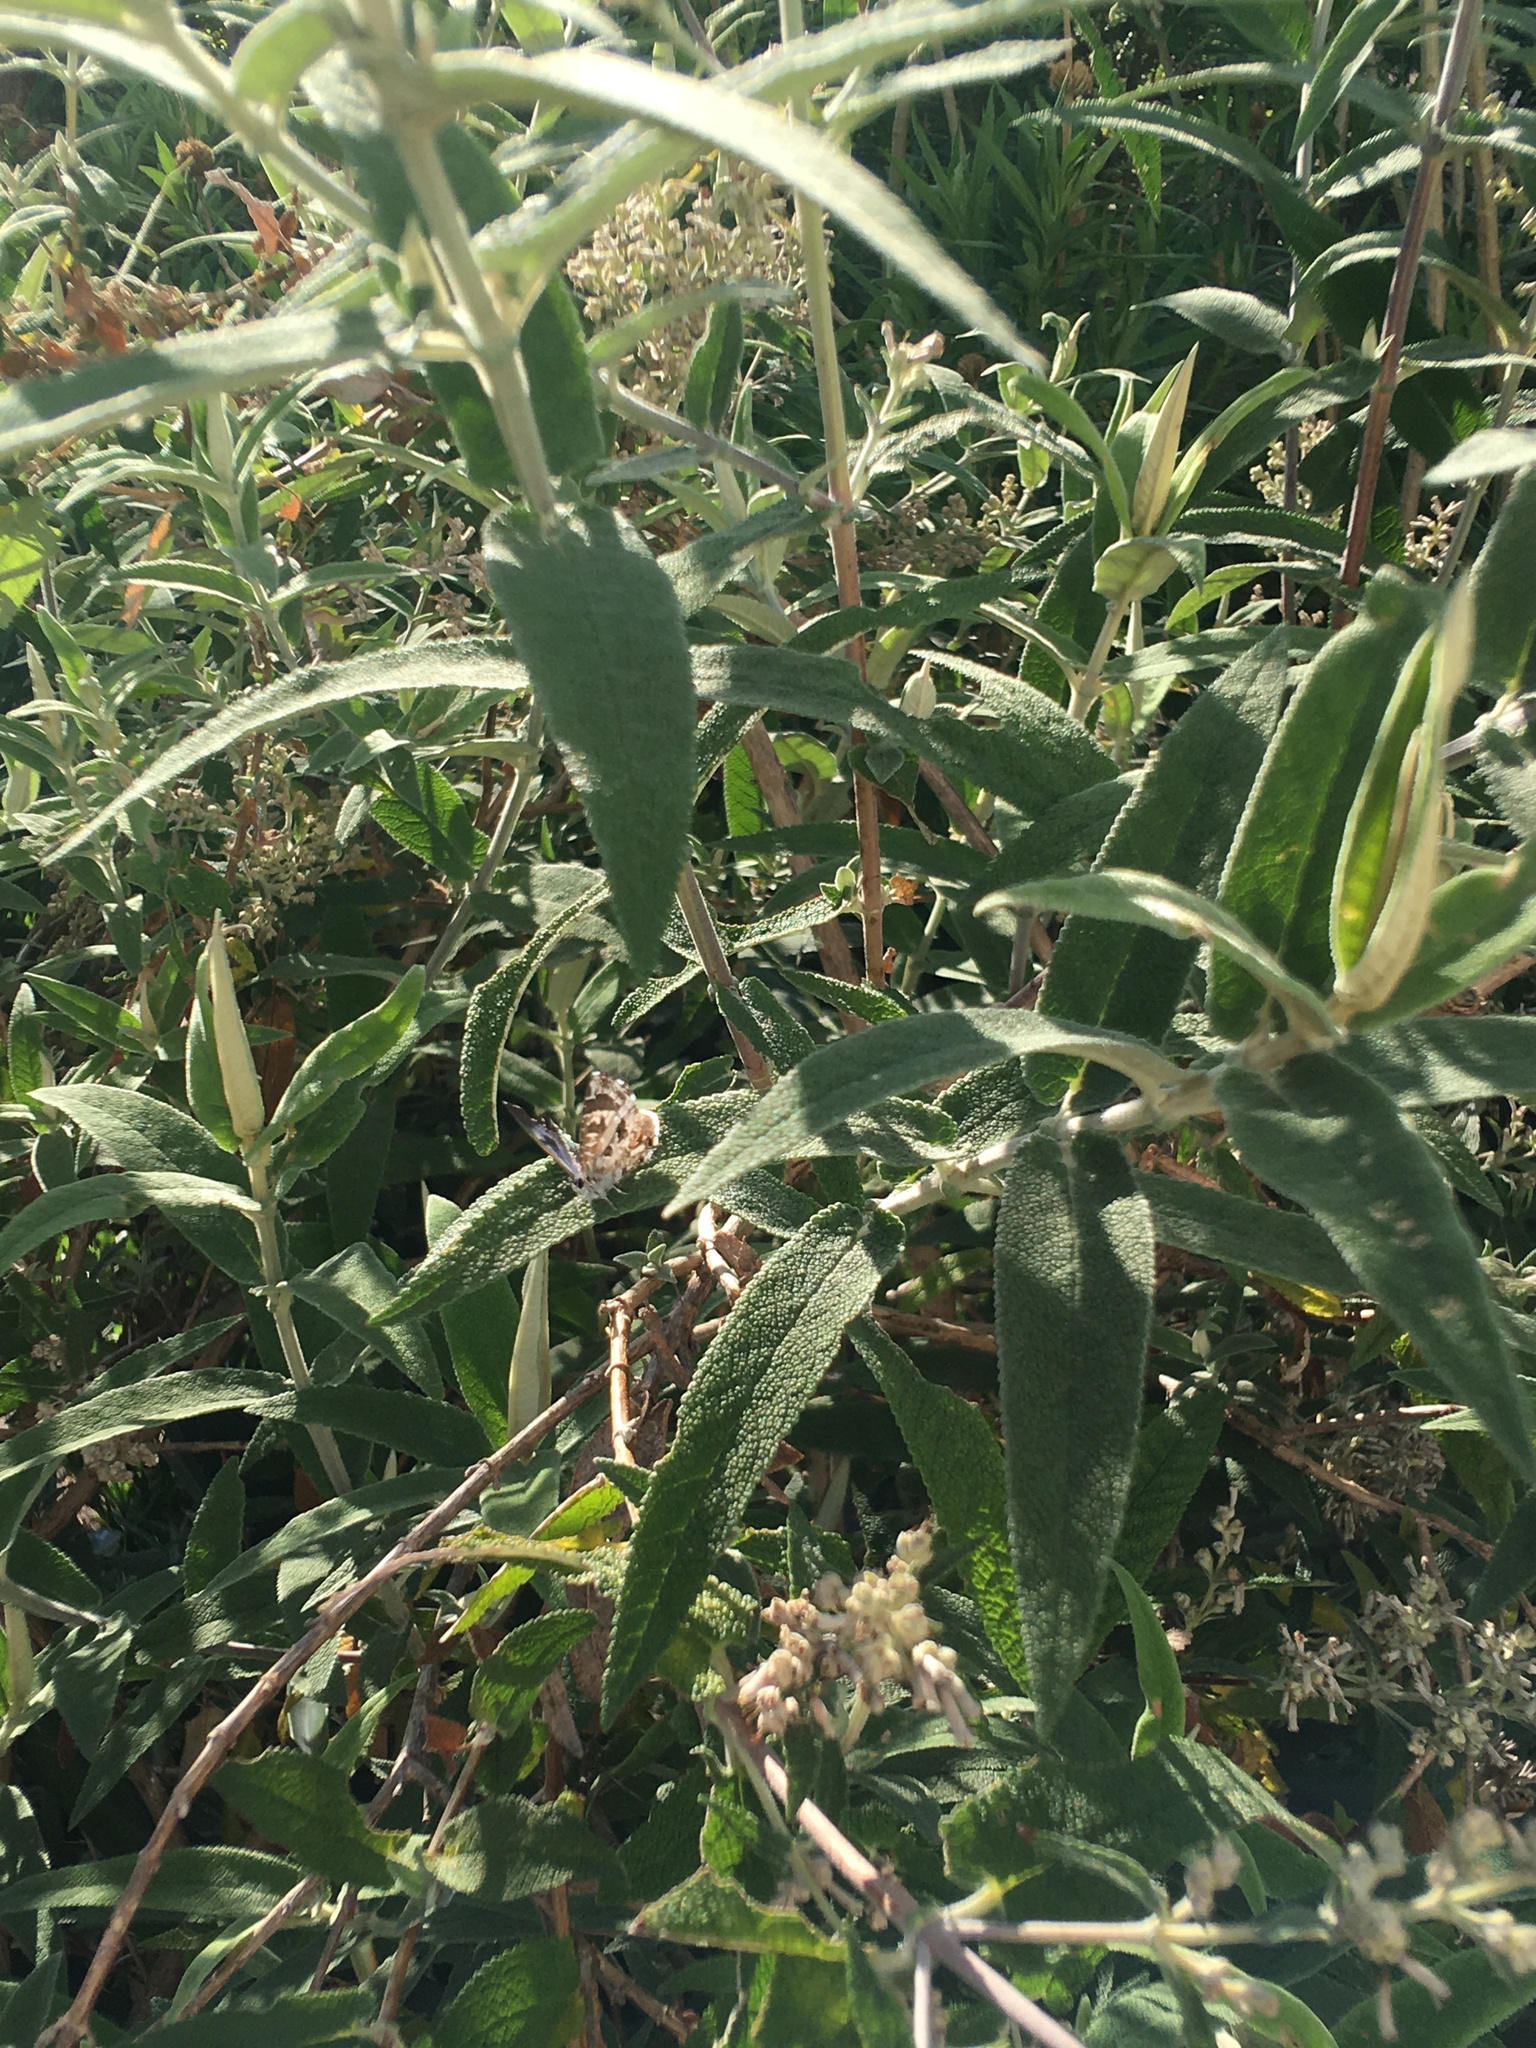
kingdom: Animalia
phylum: Arthropoda
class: Insecta
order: Lepidoptera
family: Lycaenidae
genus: Cacyreus
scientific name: Cacyreus lingeus
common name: Bush bronze
